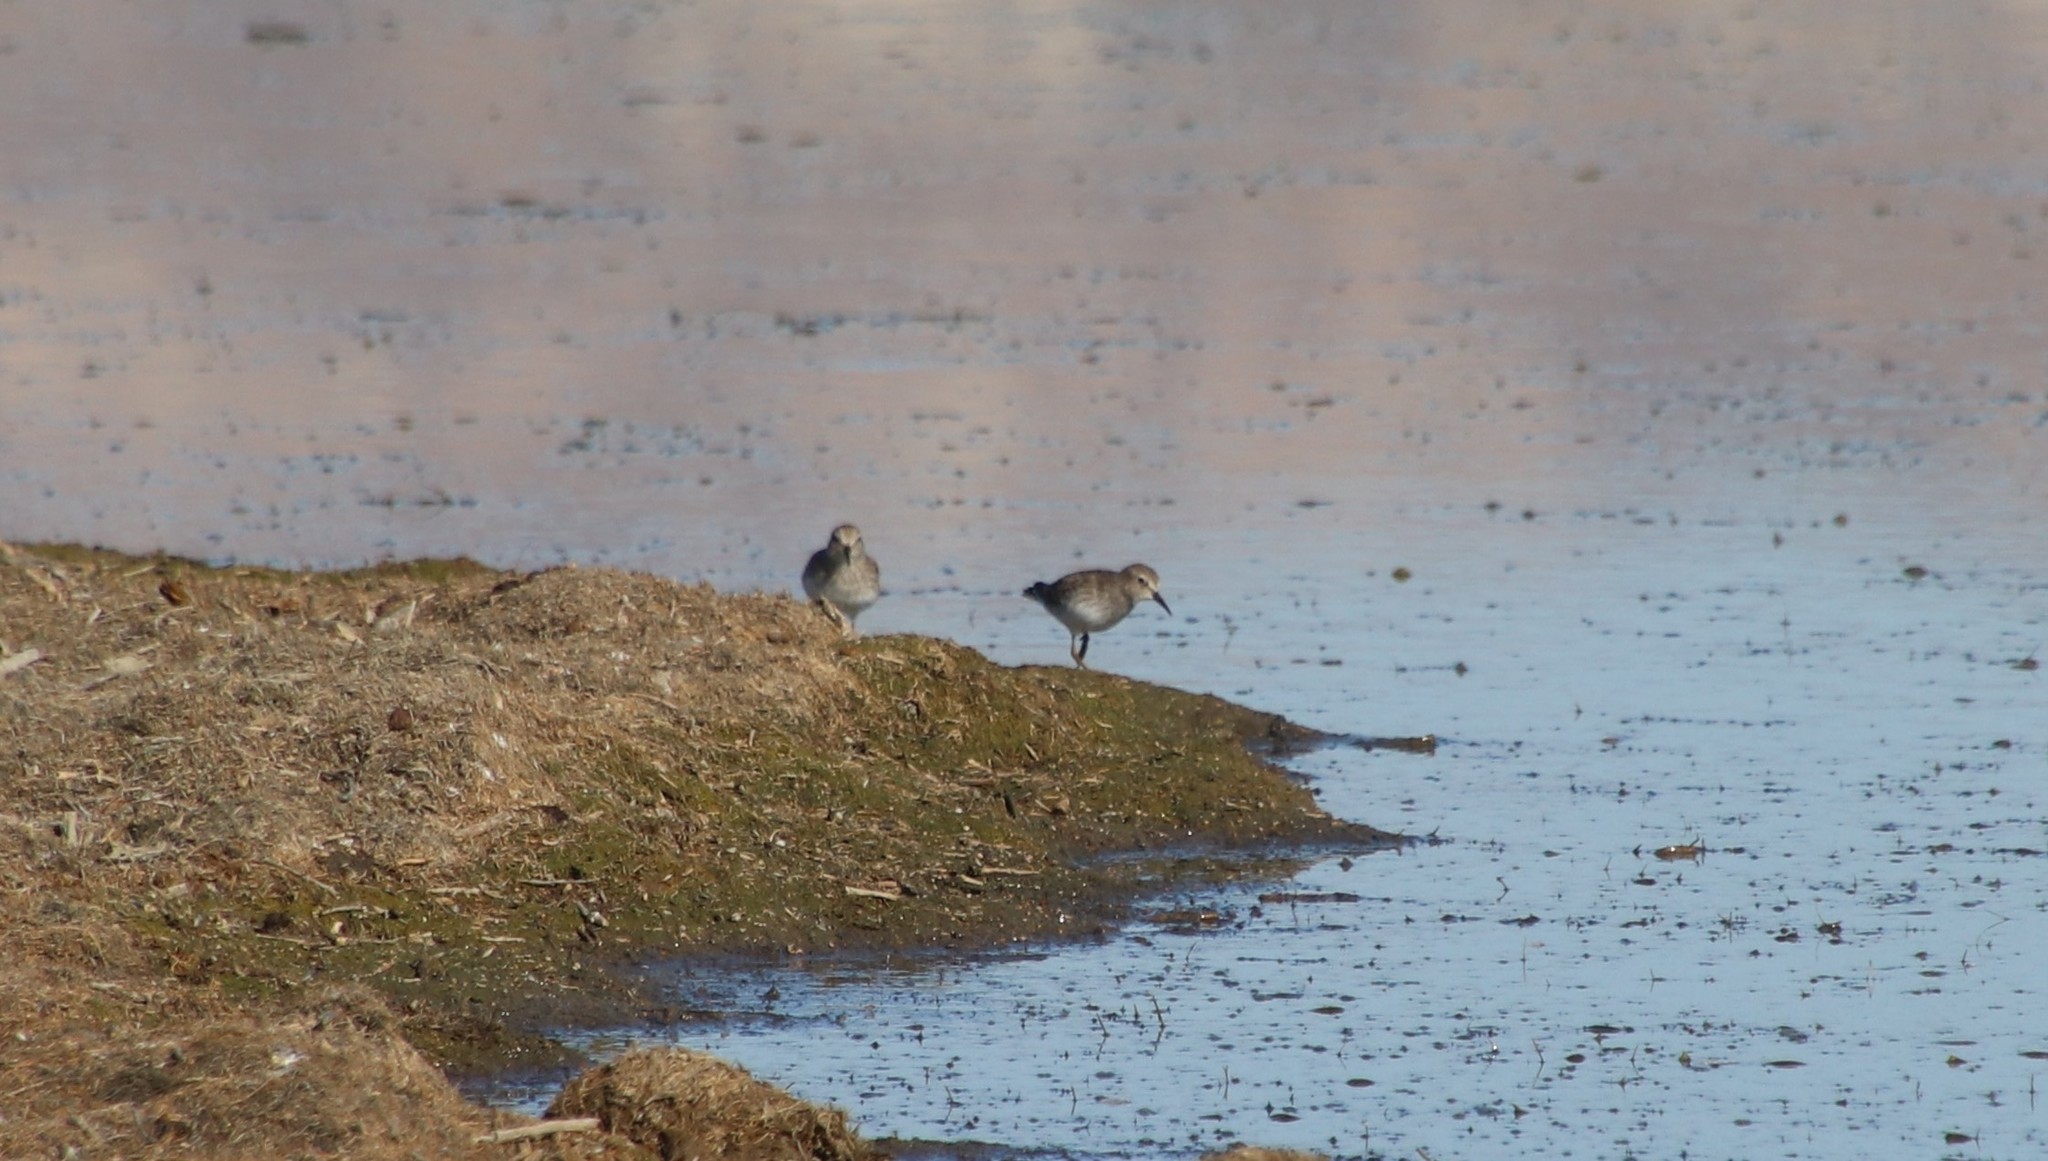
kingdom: Animalia
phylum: Chordata
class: Aves
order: Charadriiformes
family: Scolopacidae
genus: Calidris
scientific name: Calidris minutilla
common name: Least sandpiper
